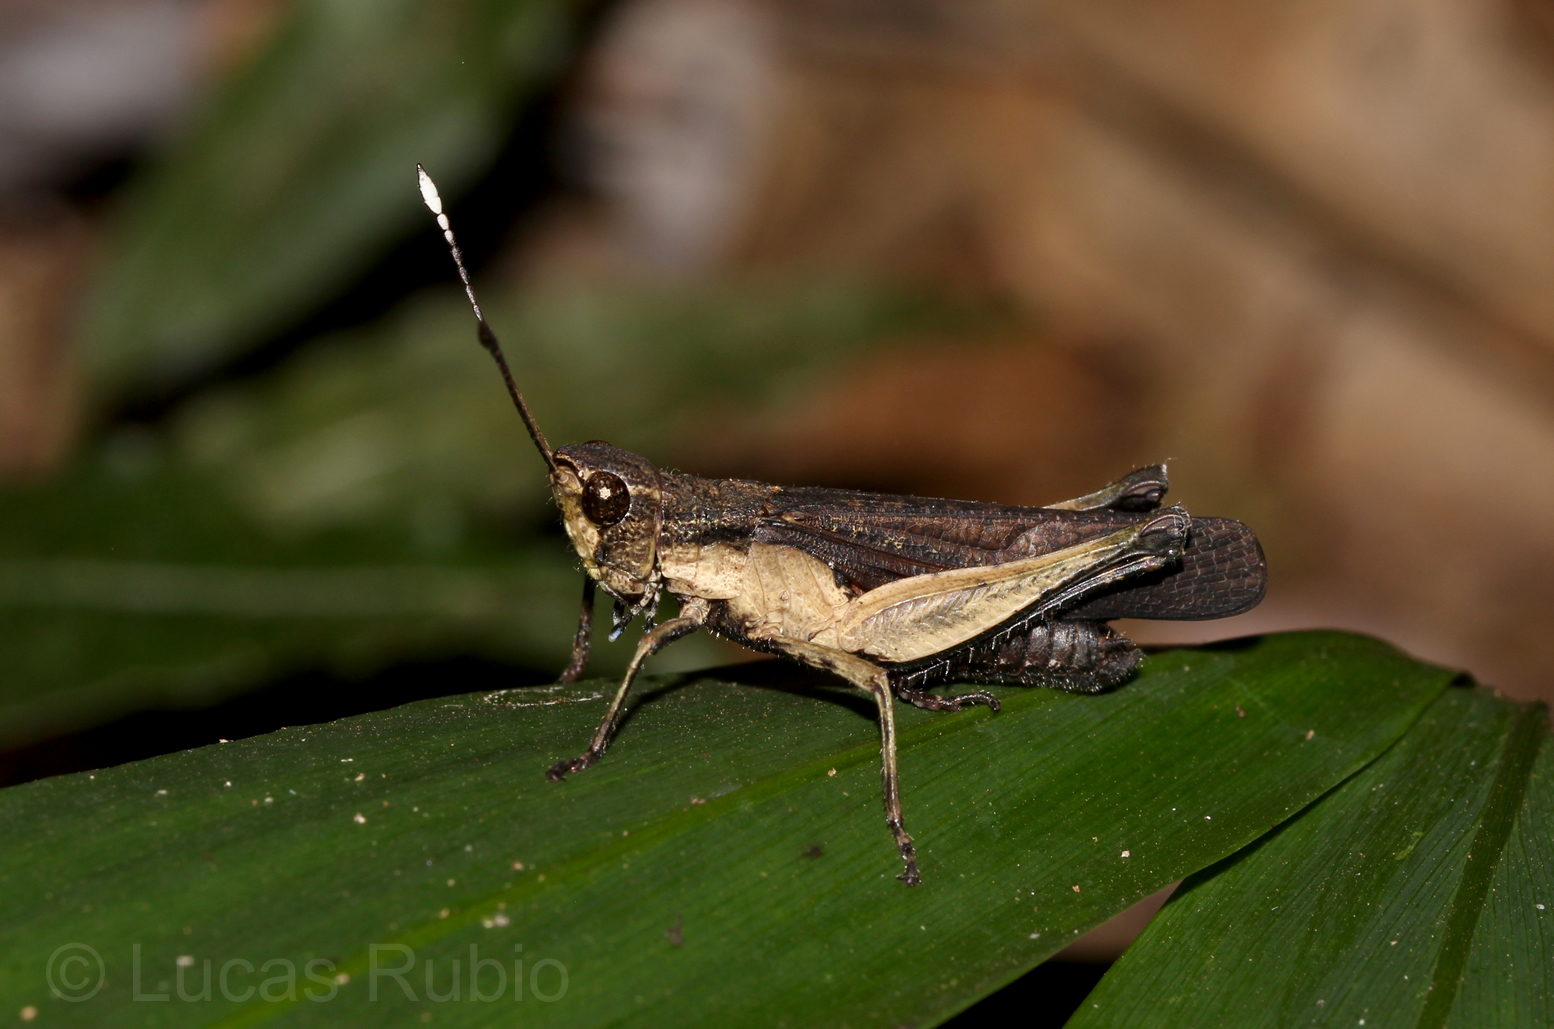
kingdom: Animalia
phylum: Arthropoda
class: Insecta
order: Orthoptera
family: Acrididae
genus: Peruvia
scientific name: Peruvia nigromarginata
